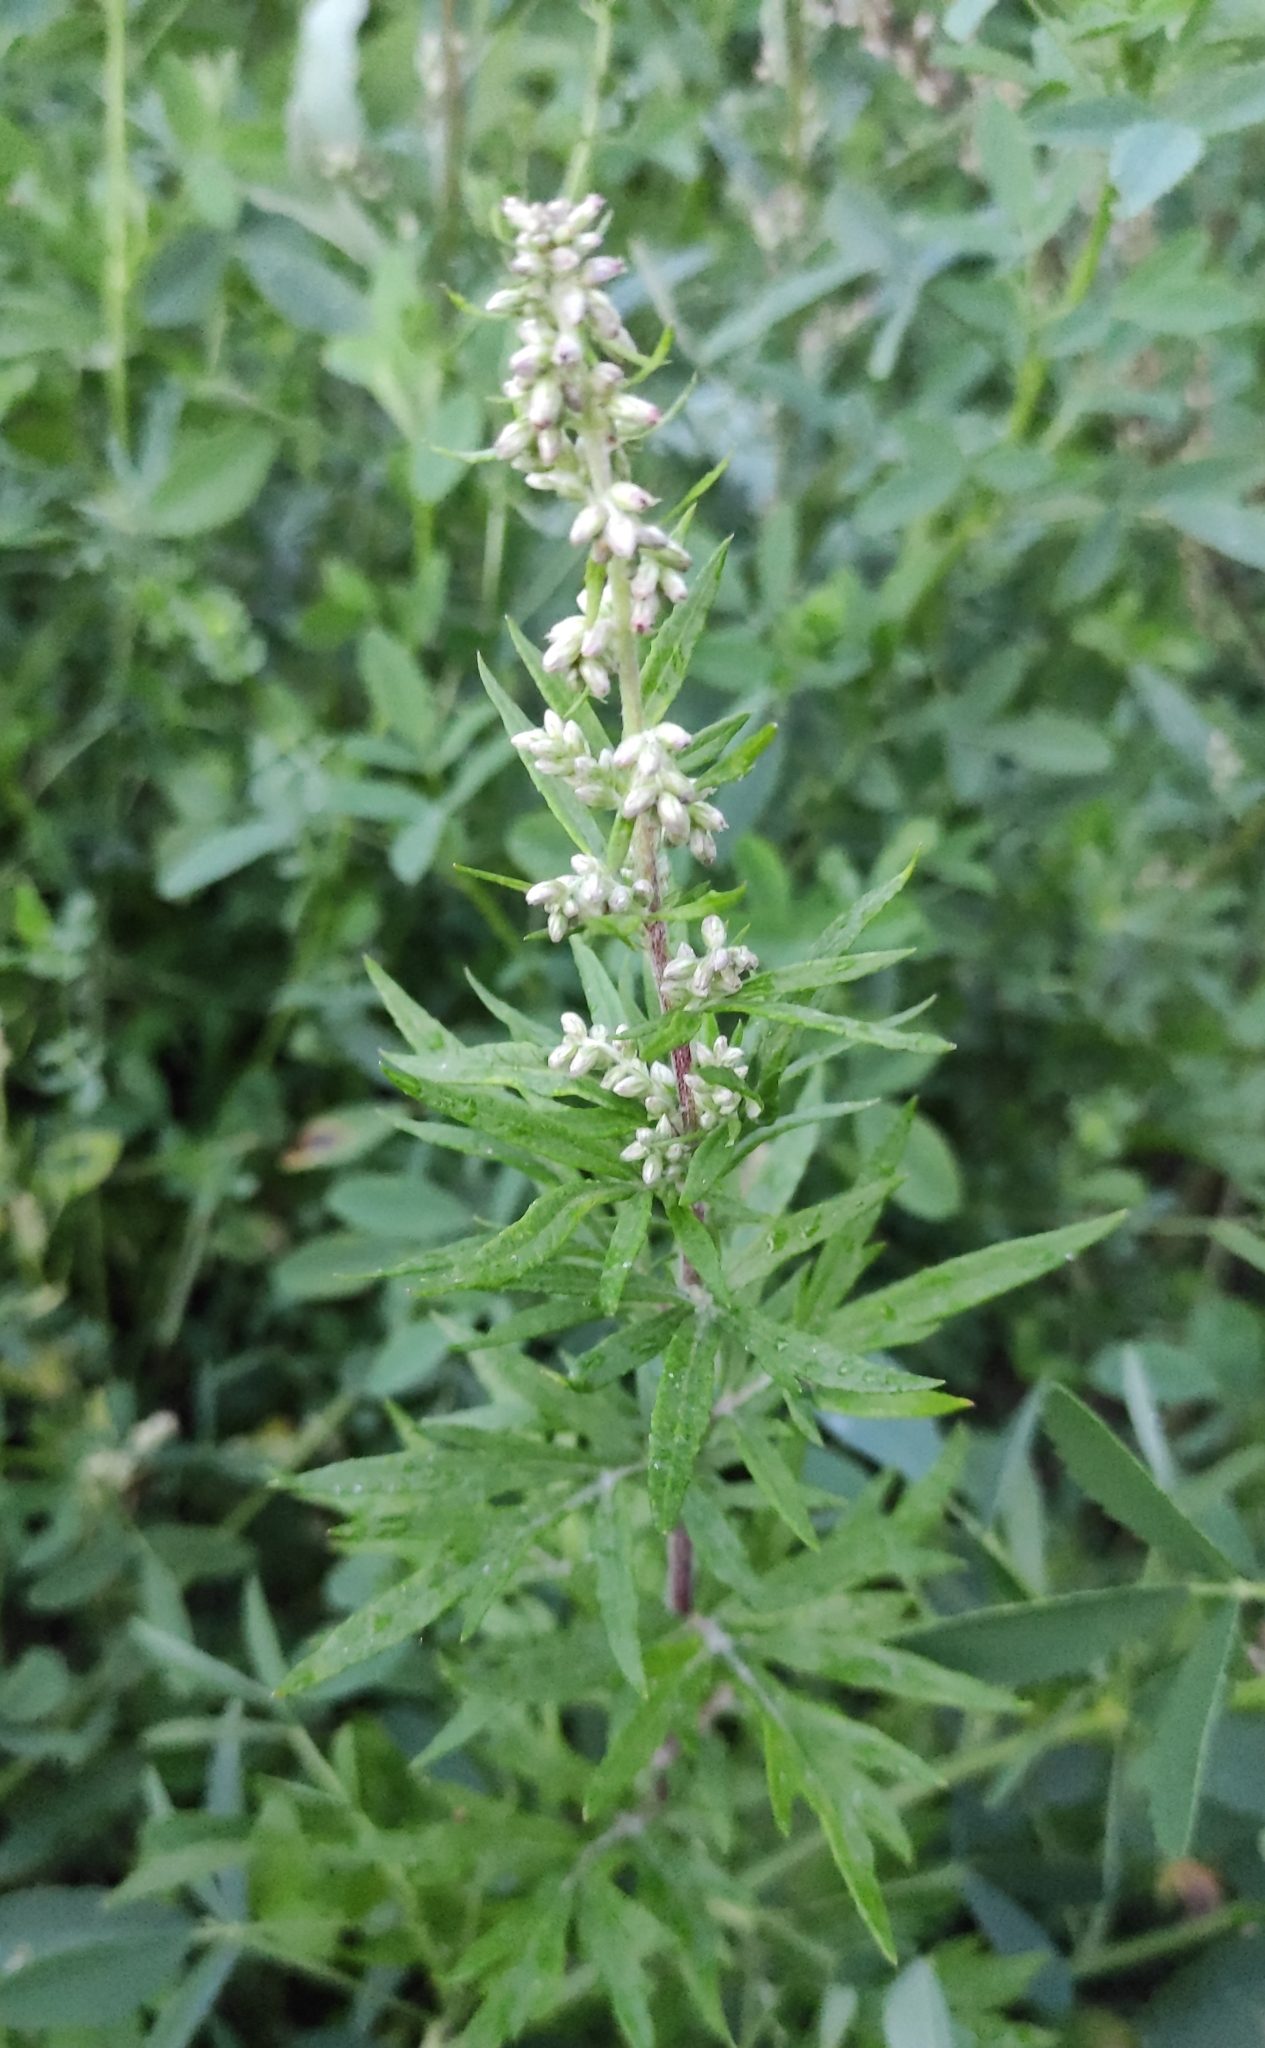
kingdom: Plantae
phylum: Tracheophyta
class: Magnoliopsida
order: Asterales
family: Asteraceae
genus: Artemisia
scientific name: Artemisia vulgaris
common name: Mugwort
